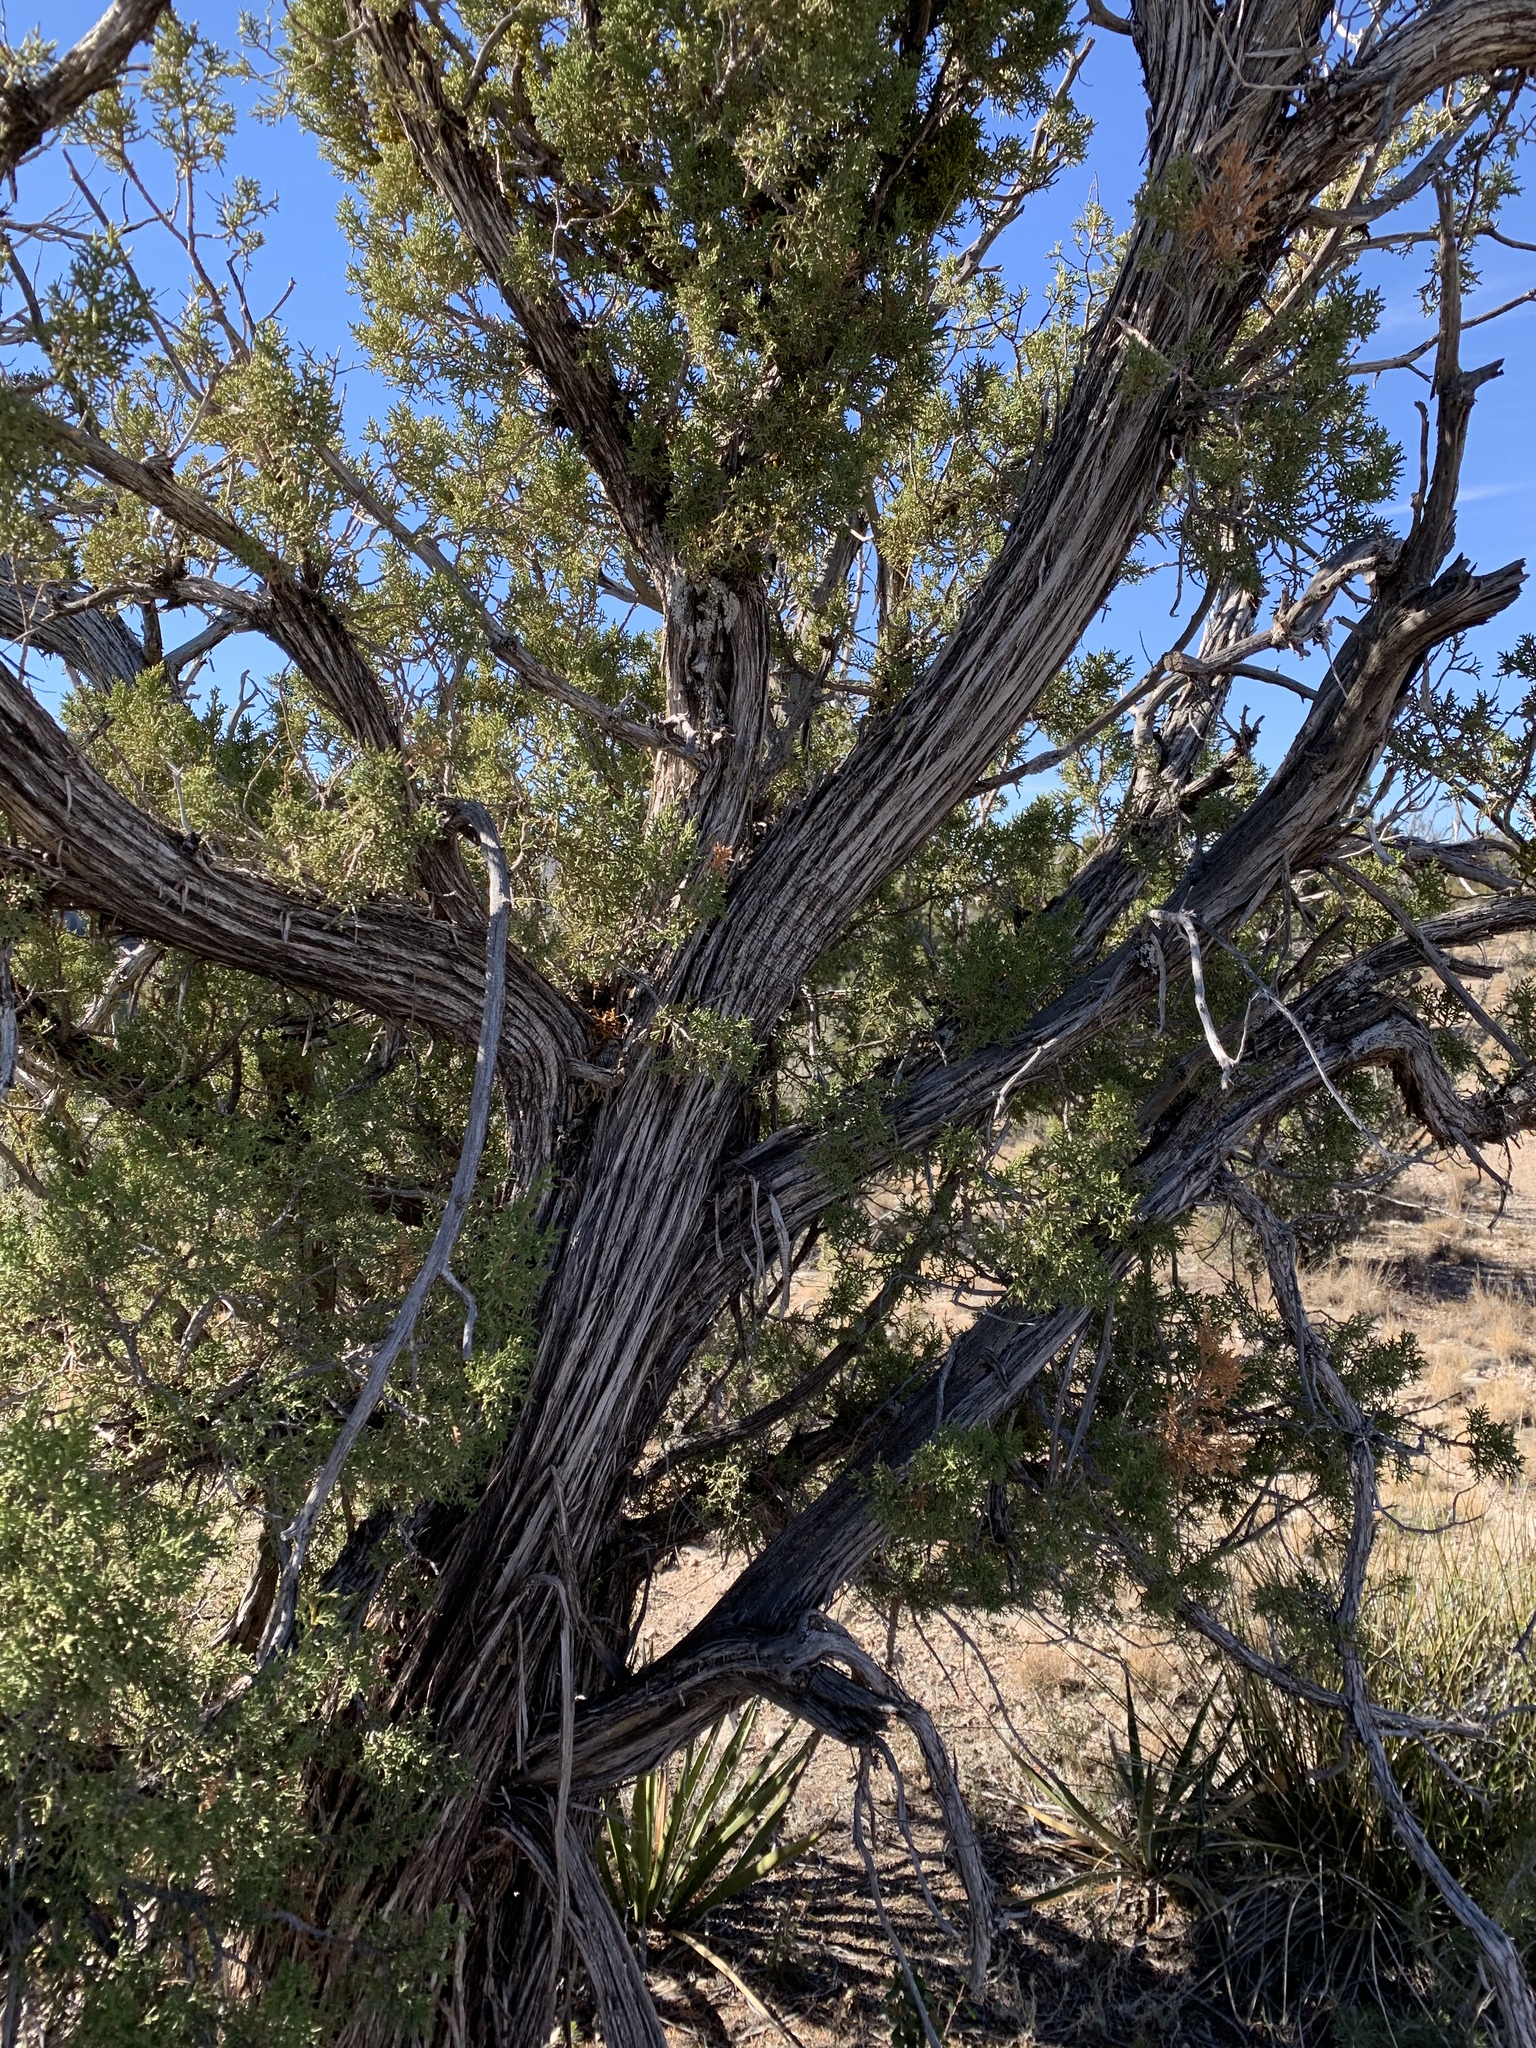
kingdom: Plantae
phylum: Tracheophyta
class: Pinopsida
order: Pinales
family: Cupressaceae
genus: Juniperus
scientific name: Juniperus monosperma
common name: One-seed juniper
